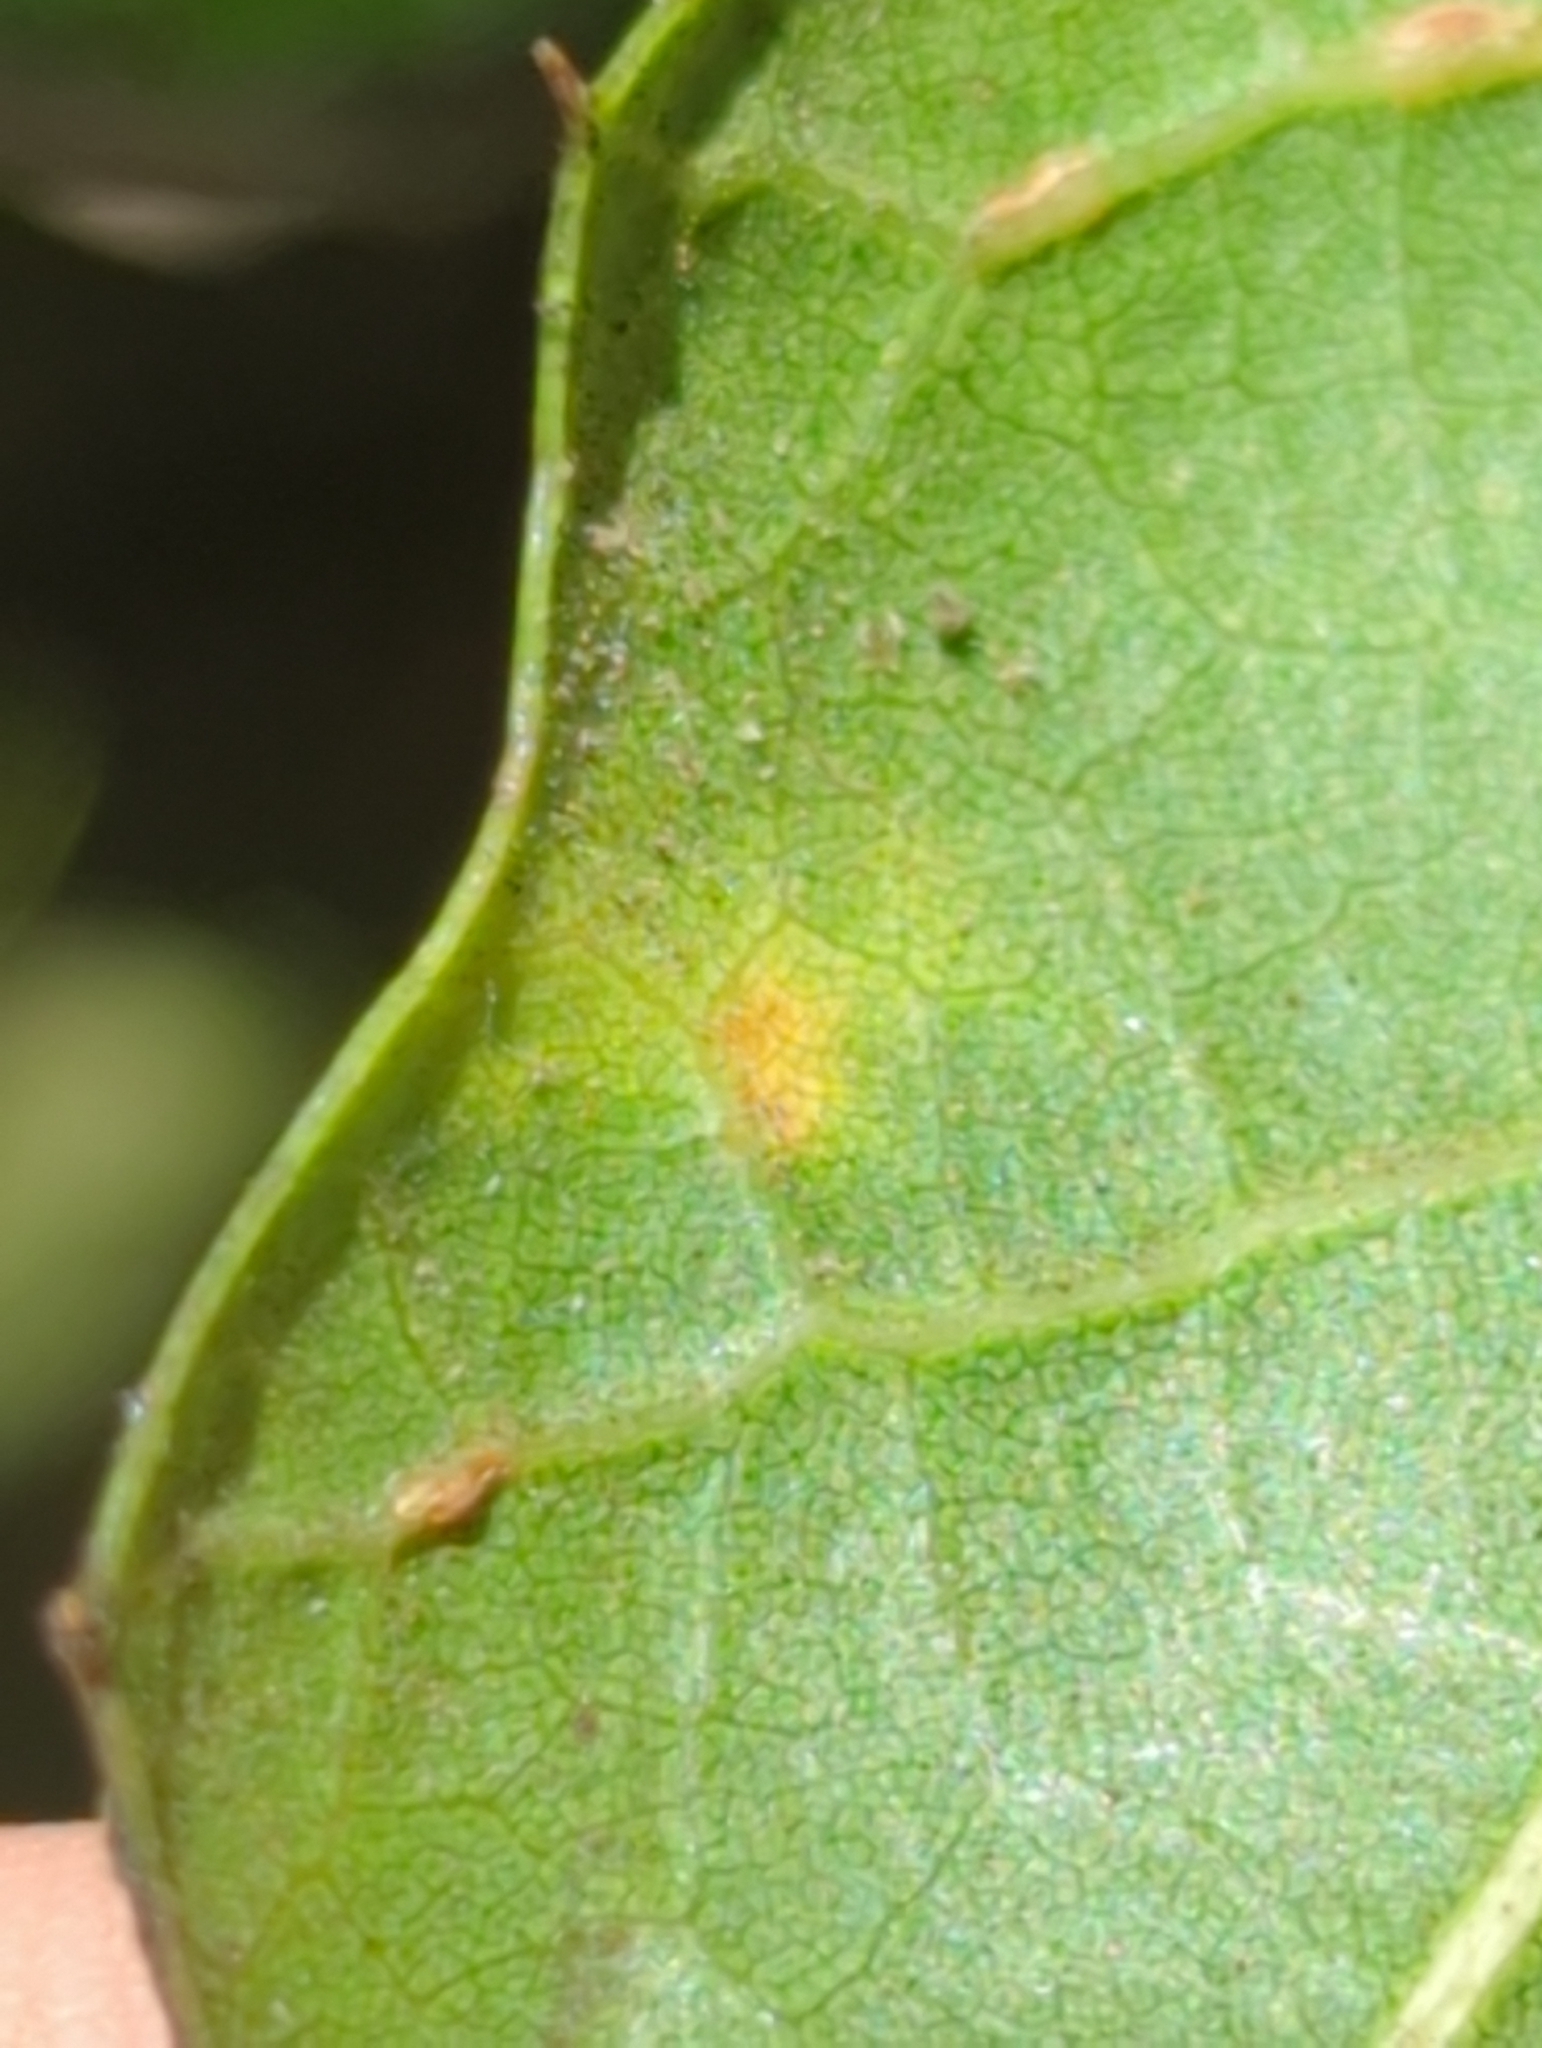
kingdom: Animalia
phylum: Arthropoda
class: Insecta
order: Hymenoptera
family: Cynipidae
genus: Dryocosmus
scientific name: Dryocosmus
